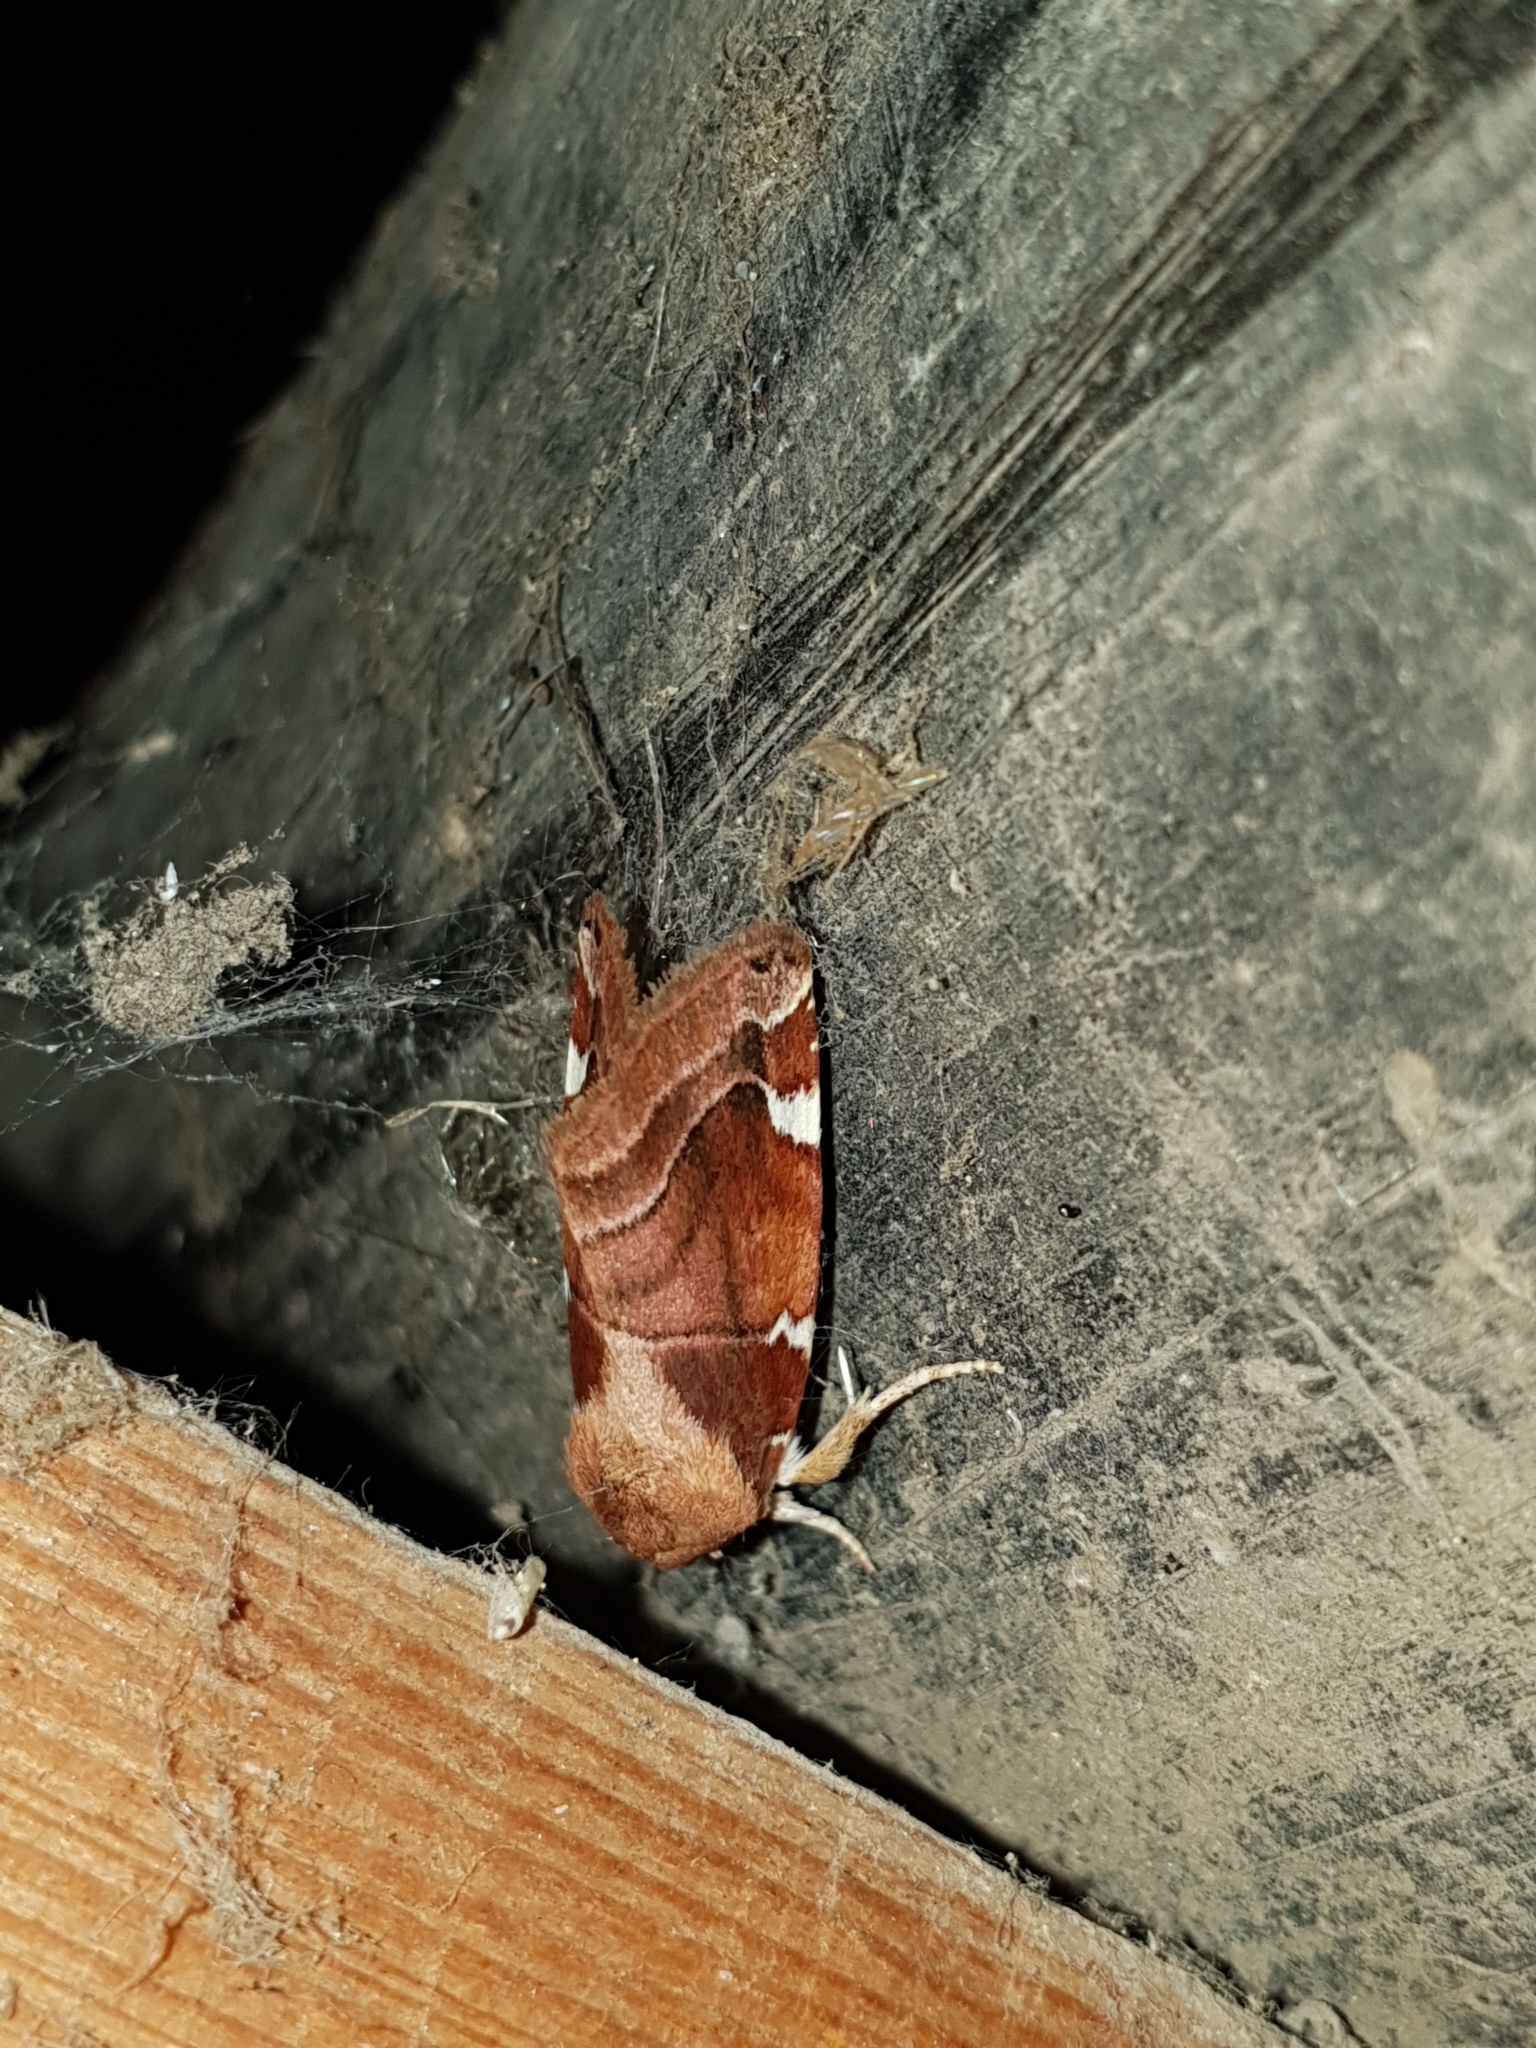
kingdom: Animalia
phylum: Arthropoda
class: Insecta
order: Lepidoptera
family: Noctuidae
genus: Cosmia
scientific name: Cosmia diffinis
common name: White-spotted pinion
